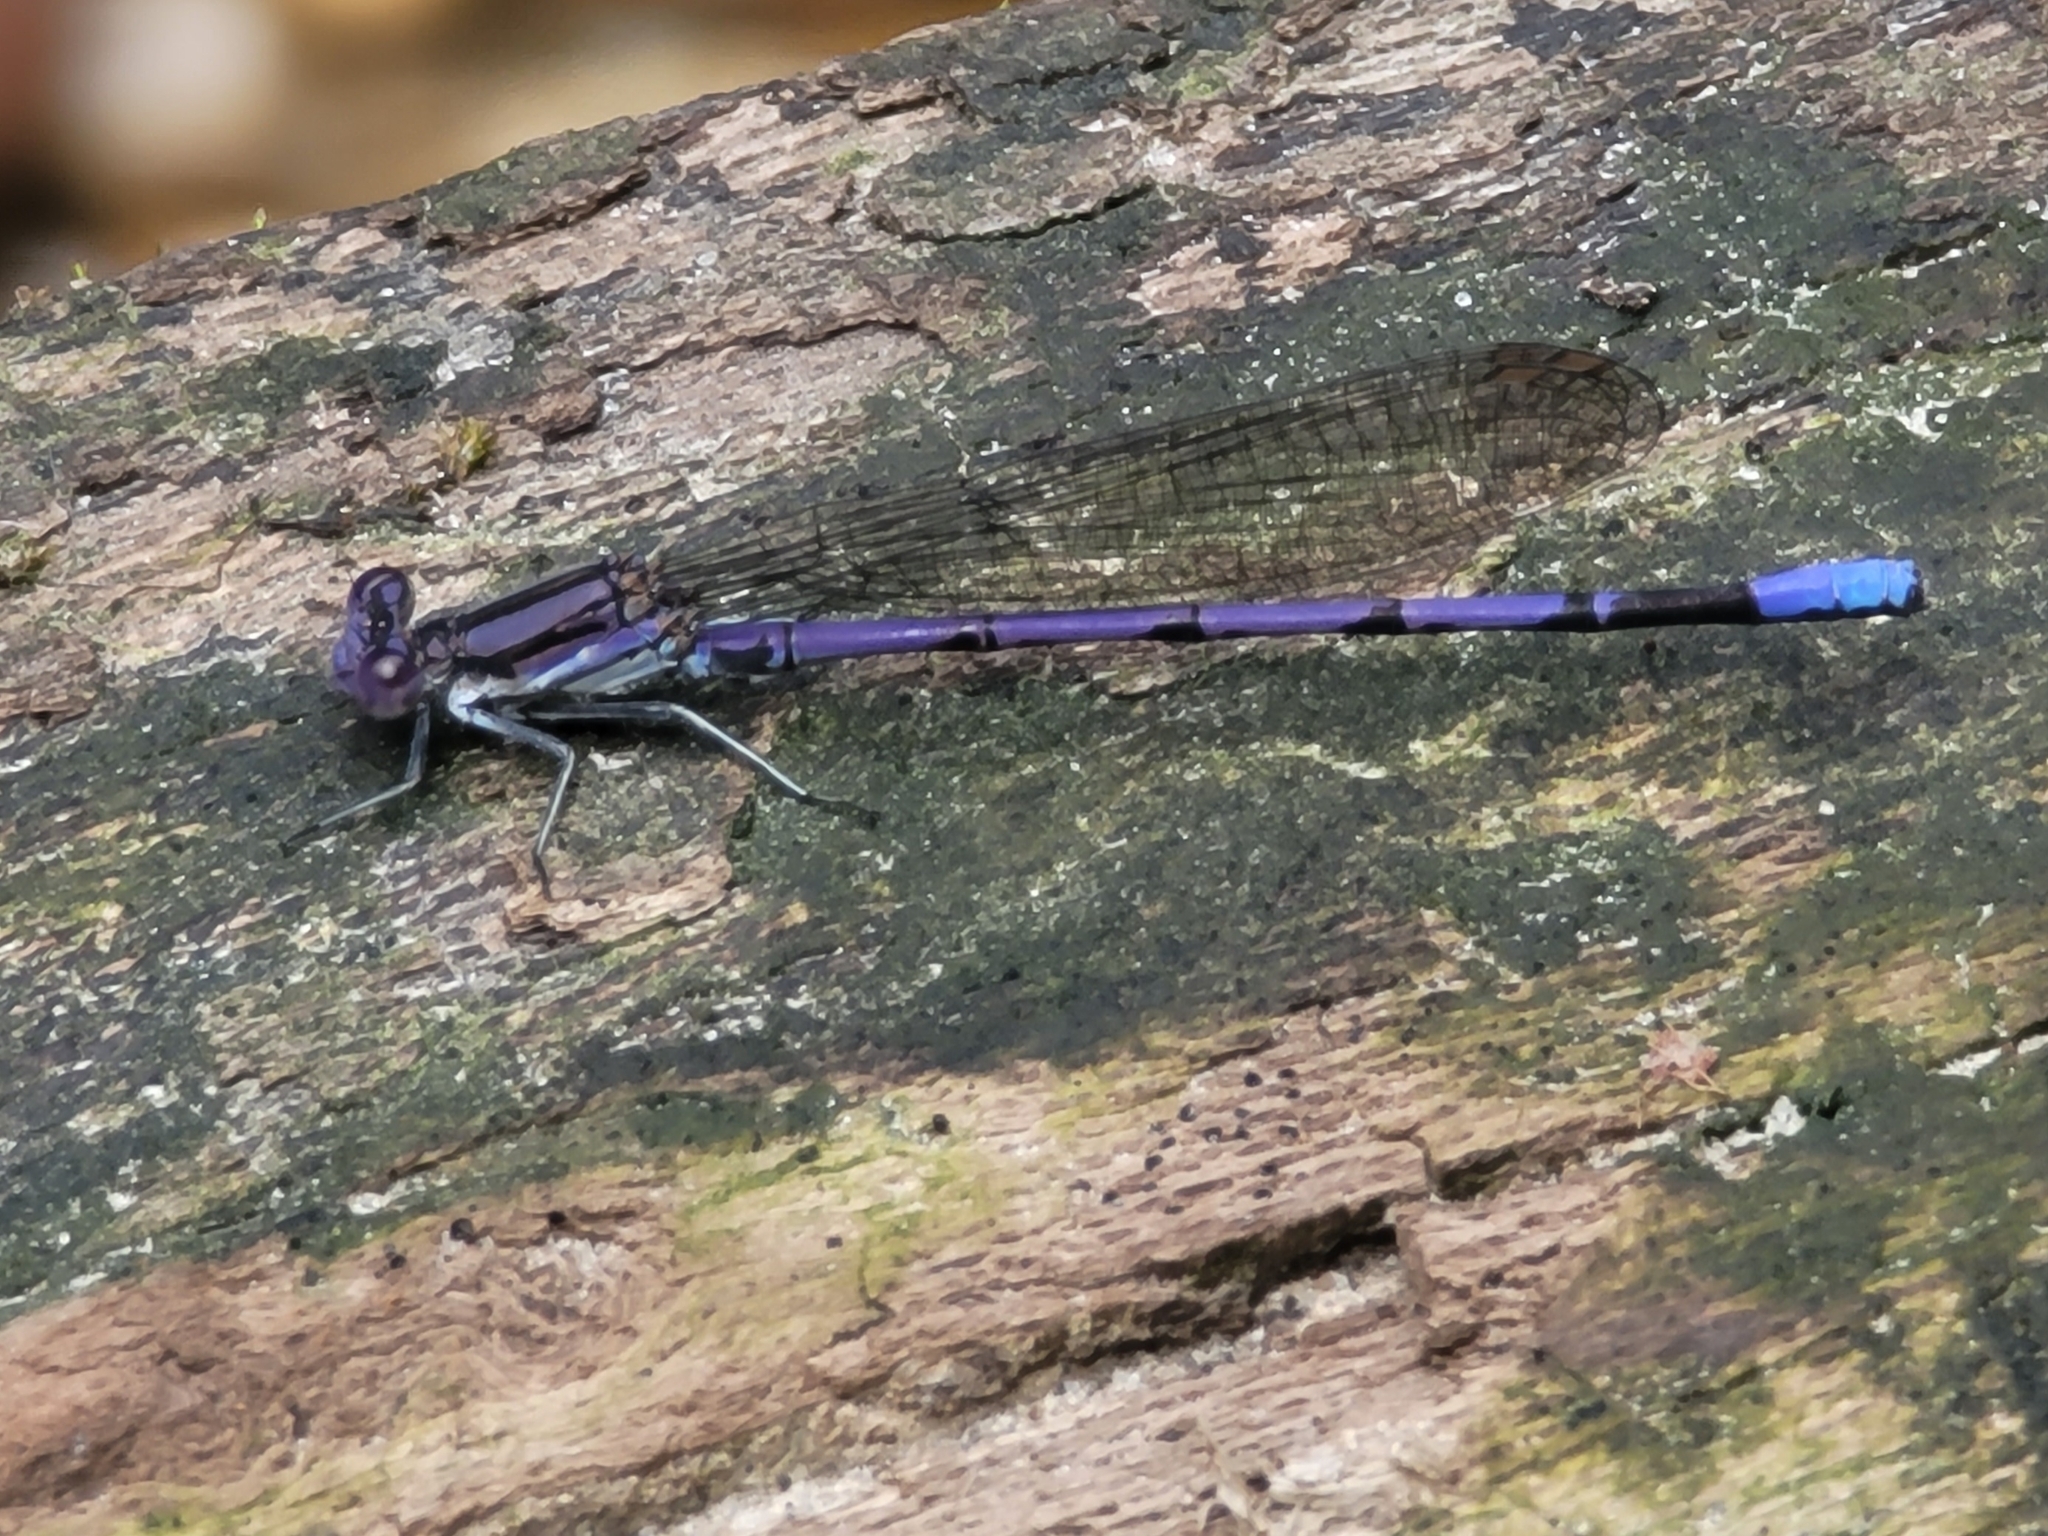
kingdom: Animalia
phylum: Arthropoda
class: Insecta
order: Odonata
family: Coenagrionidae
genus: Argia
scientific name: Argia fumipennis
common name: Variable dancer
